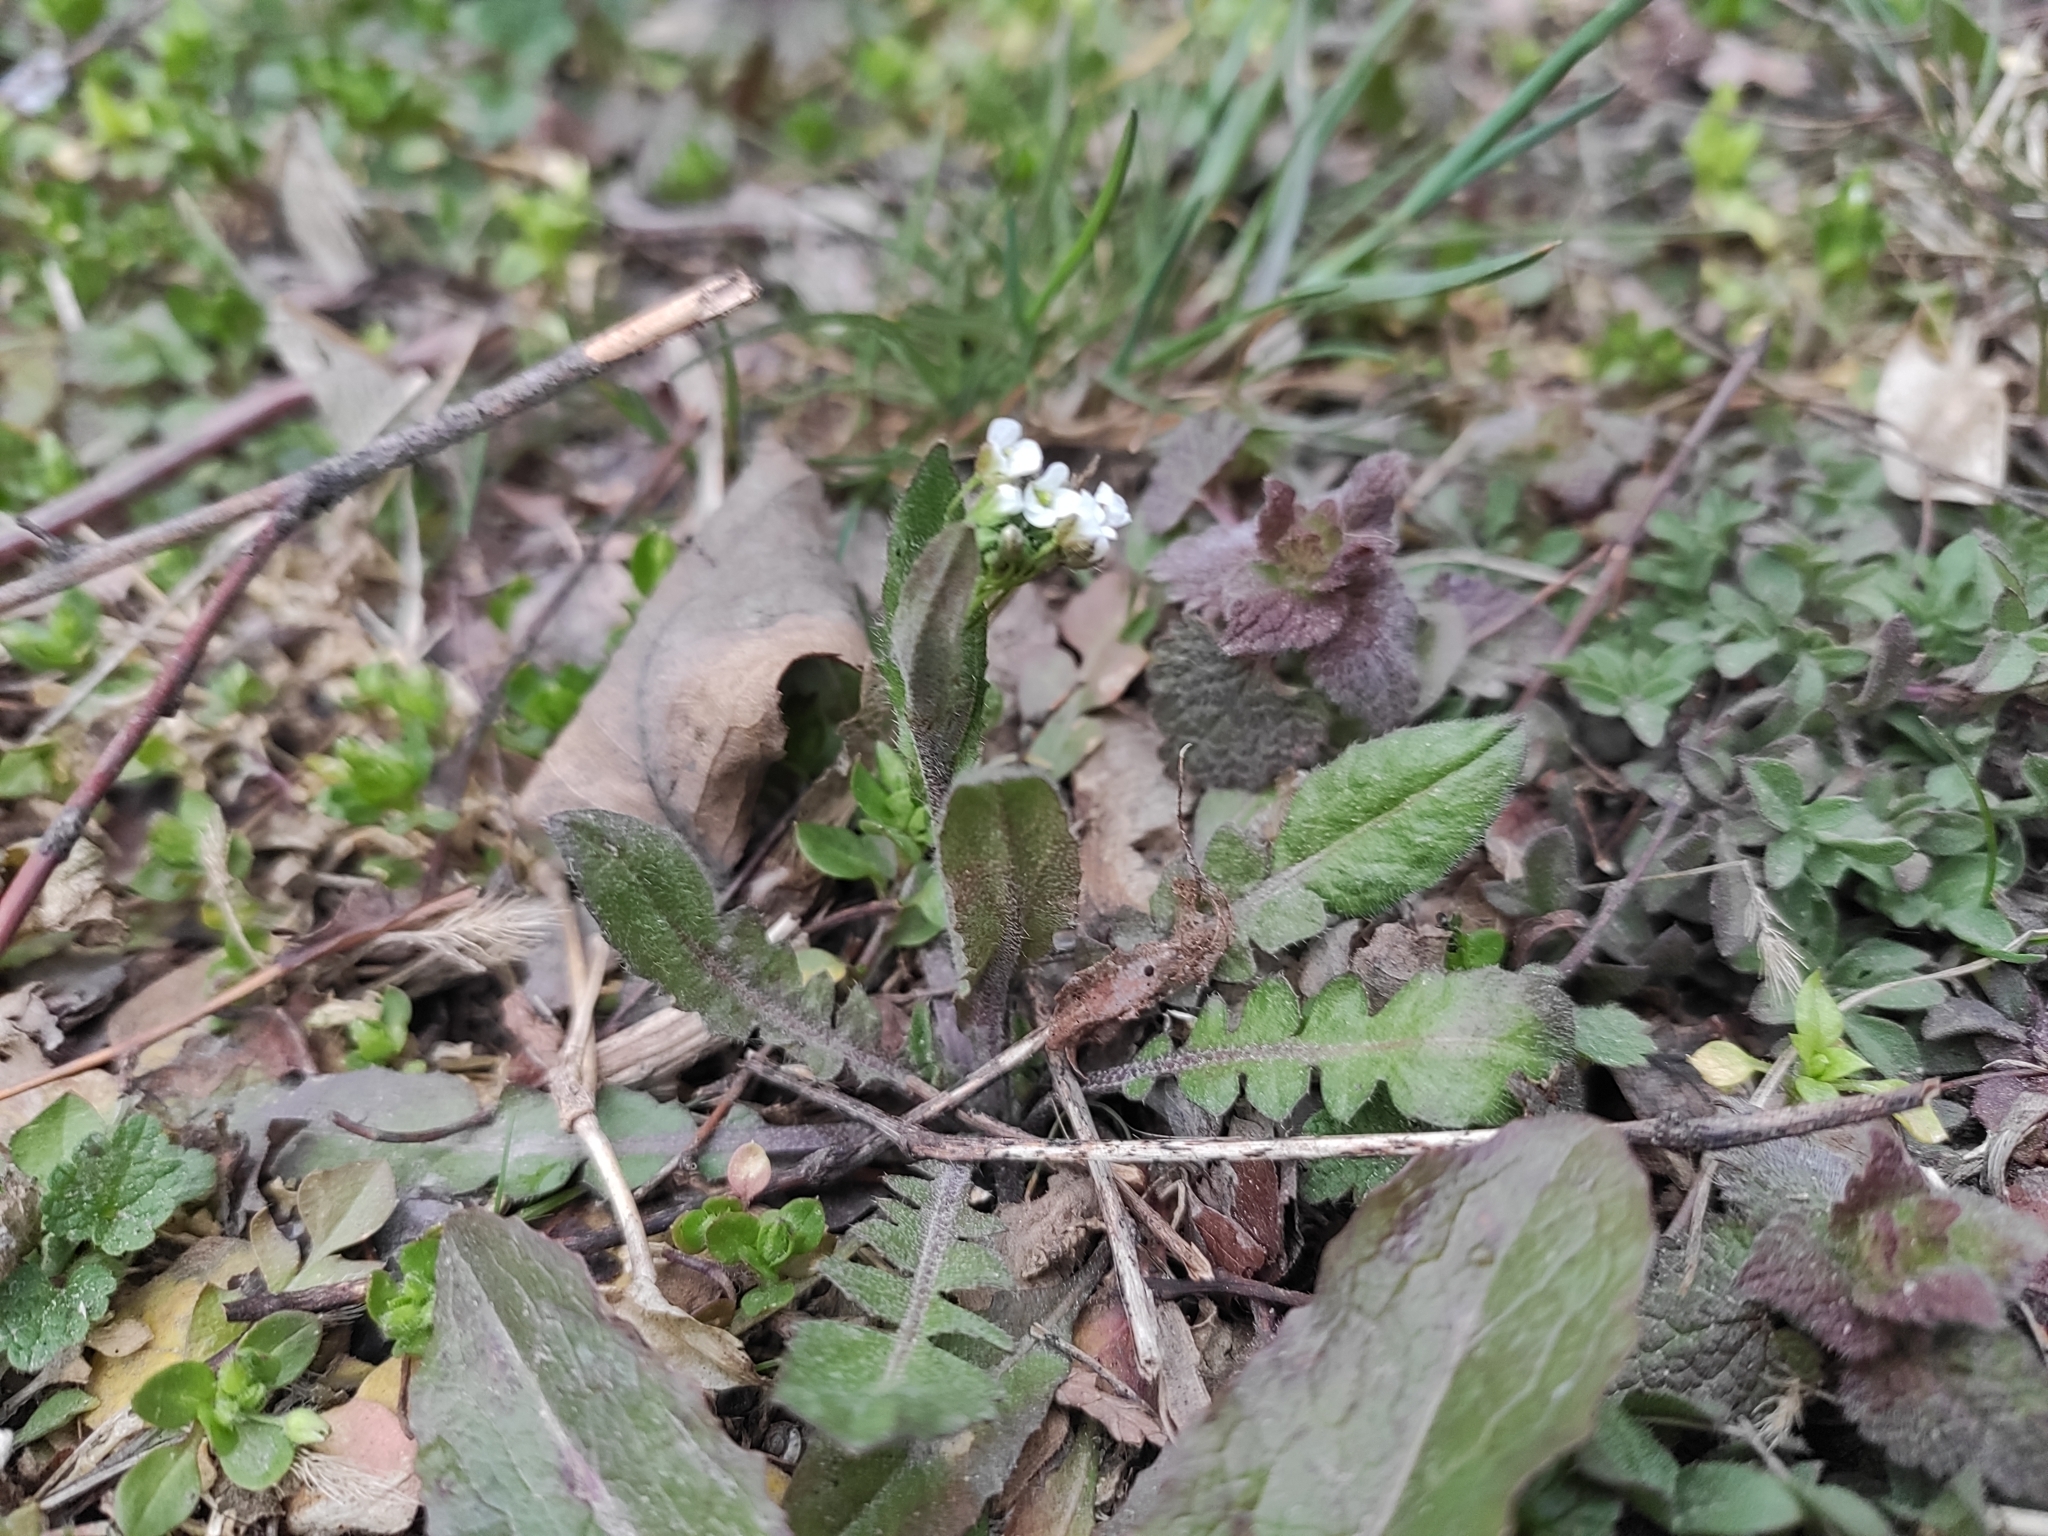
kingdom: Plantae
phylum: Tracheophyta
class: Magnoliopsida
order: Brassicales
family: Brassicaceae
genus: Capsella
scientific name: Capsella bursa-pastoris
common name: Shepherd's purse
